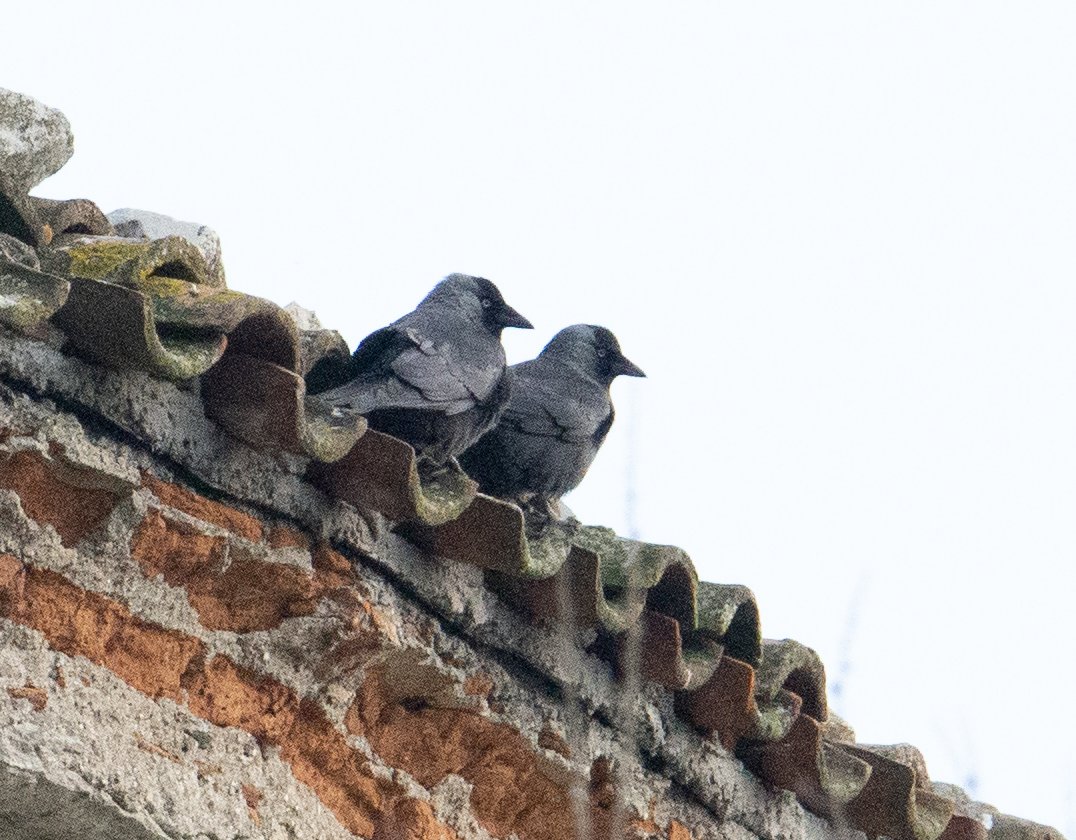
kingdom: Animalia
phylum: Chordata
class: Aves
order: Passeriformes
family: Corvidae
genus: Coloeus
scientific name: Coloeus monedula
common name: Western jackdaw
